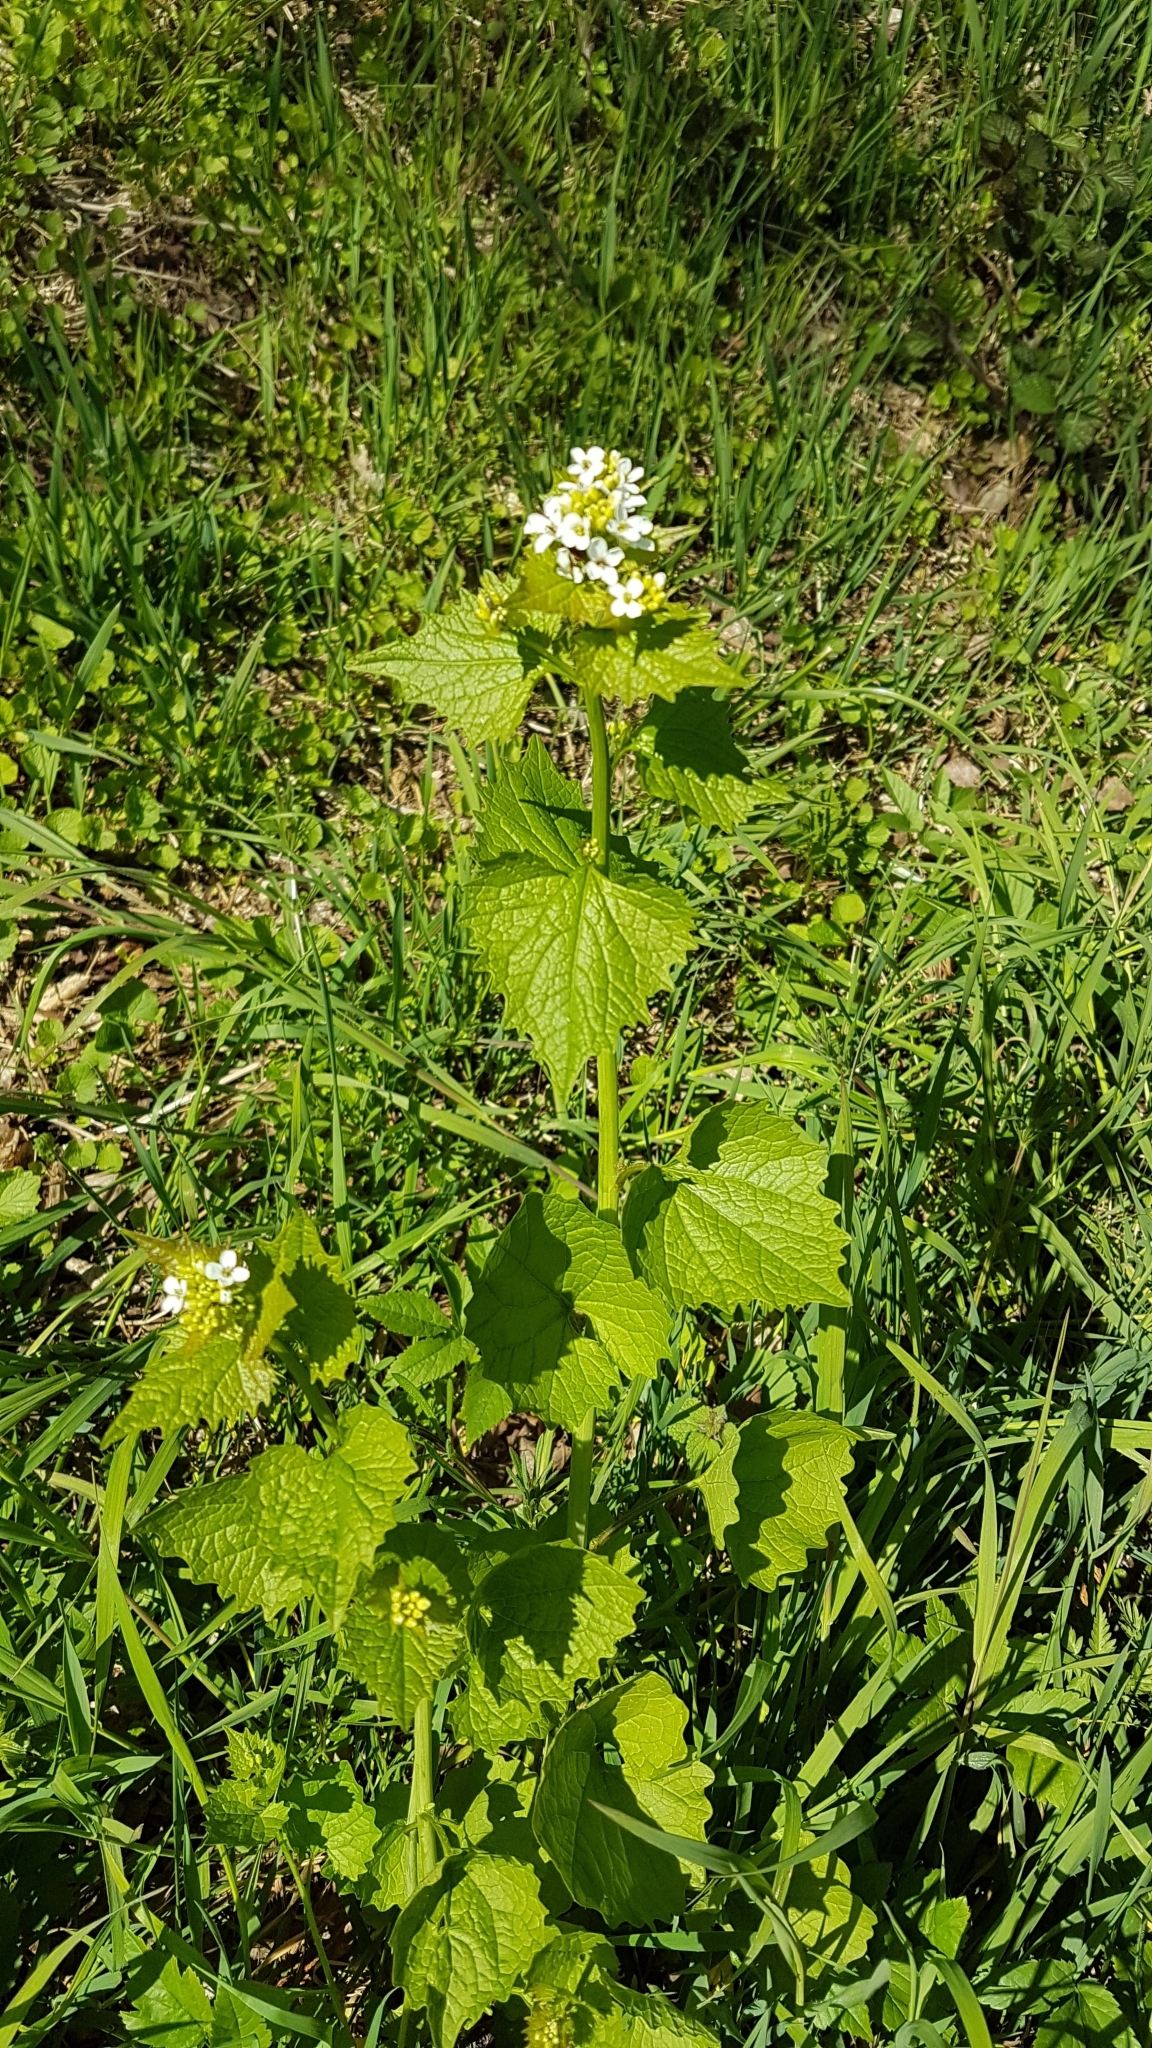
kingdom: Plantae
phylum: Tracheophyta
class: Magnoliopsida
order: Brassicales
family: Brassicaceae
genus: Alliaria
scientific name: Alliaria petiolata
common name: Garlic mustard
